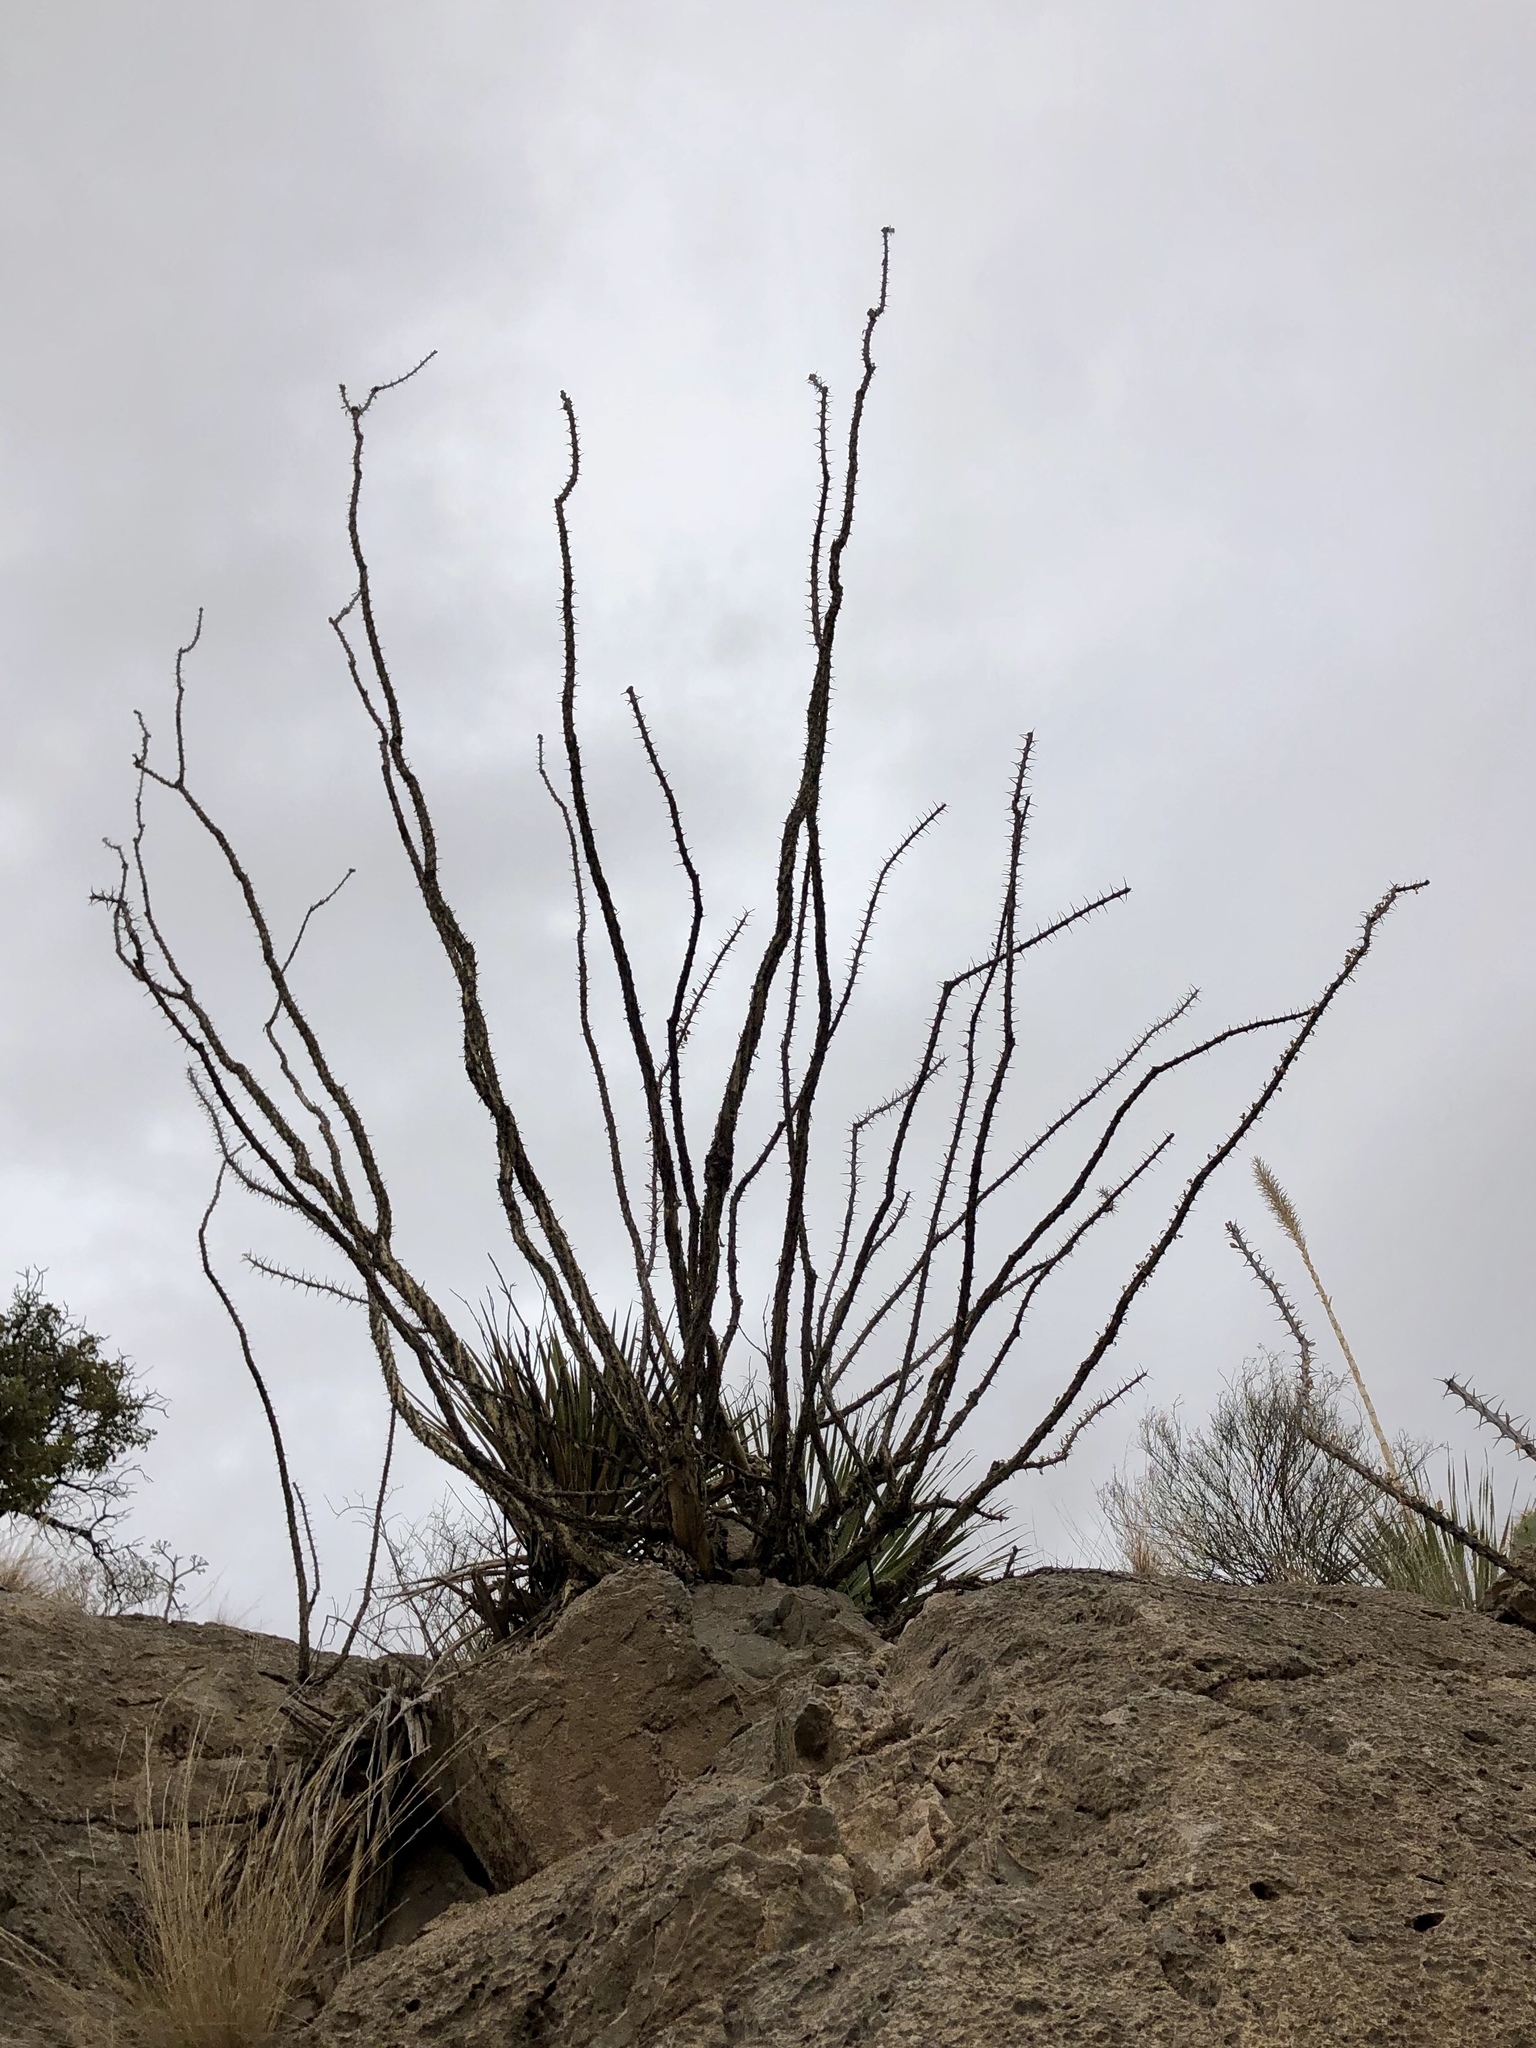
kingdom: Plantae
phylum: Tracheophyta
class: Magnoliopsida
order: Ericales
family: Fouquieriaceae
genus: Fouquieria
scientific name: Fouquieria splendens
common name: Vine-cactus
